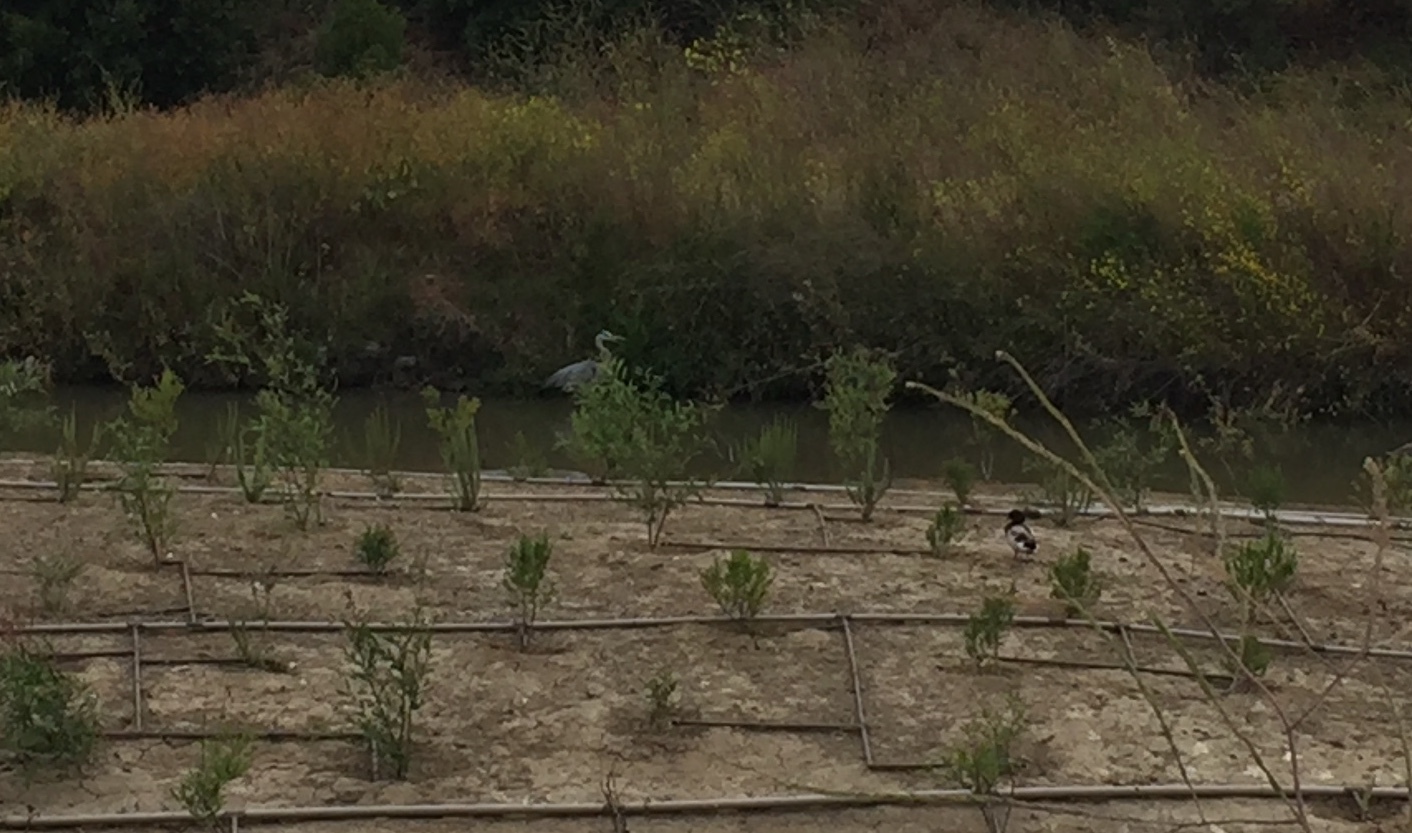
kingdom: Animalia
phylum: Chordata
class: Aves
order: Pelecaniformes
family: Ardeidae
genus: Ardea
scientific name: Ardea herodias
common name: Great blue heron
